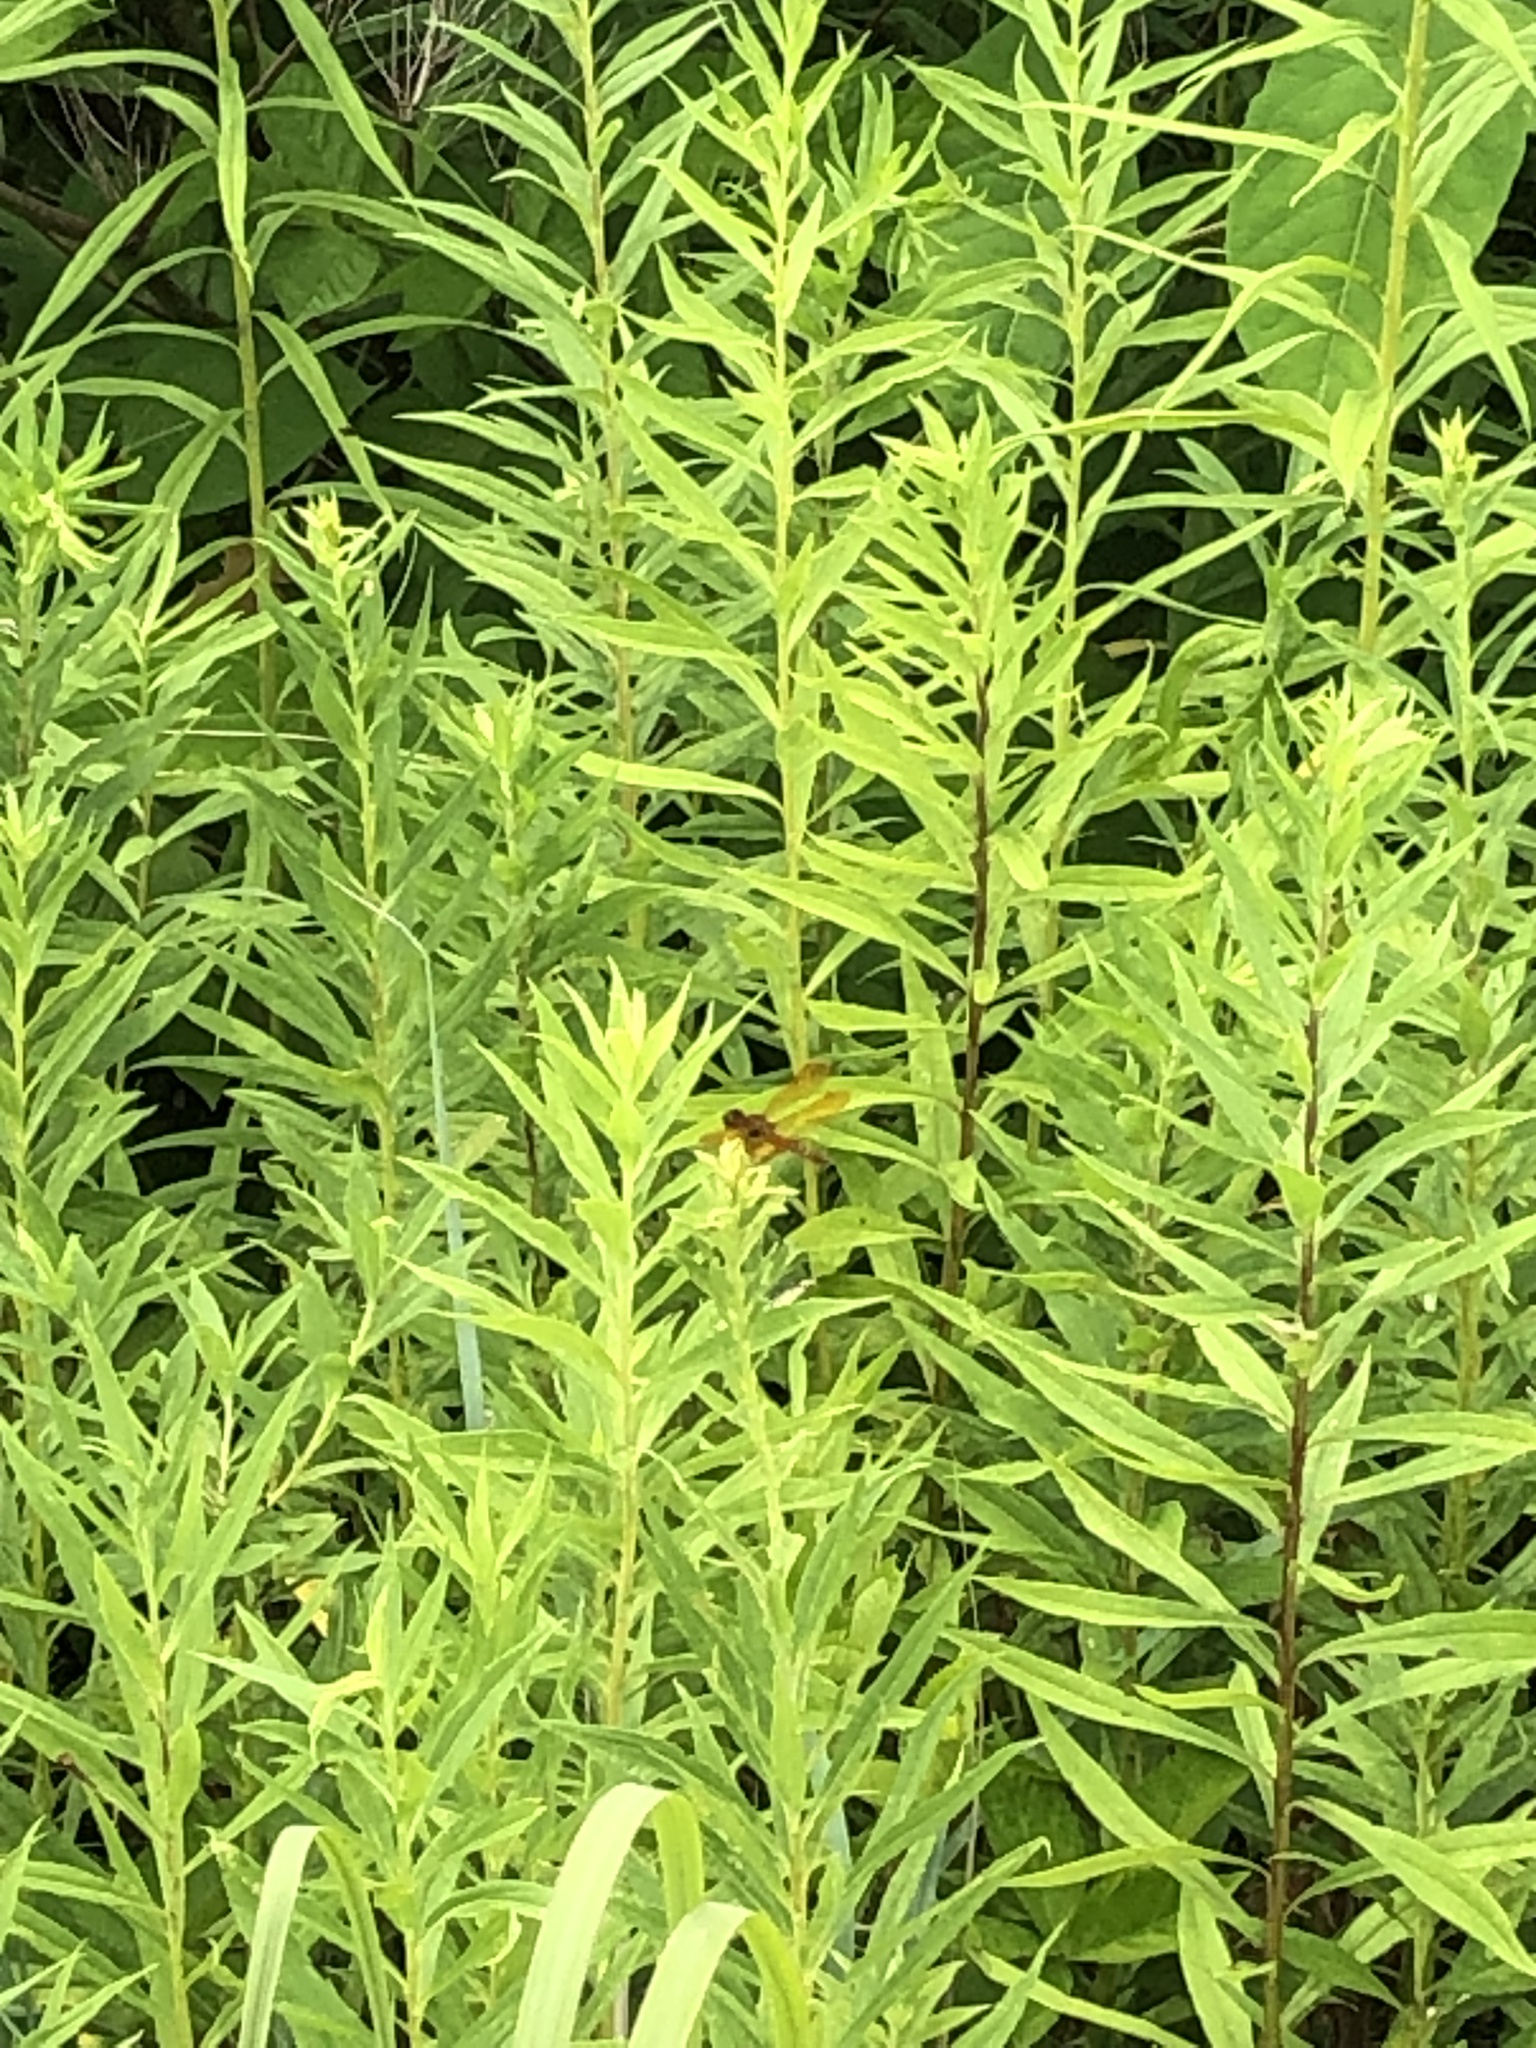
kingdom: Animalia
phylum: Arthropoda
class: Insecta
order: Odonata
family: Libellulidae
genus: Perithemis
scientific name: Perithemis tenera
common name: Eastern amberwing
